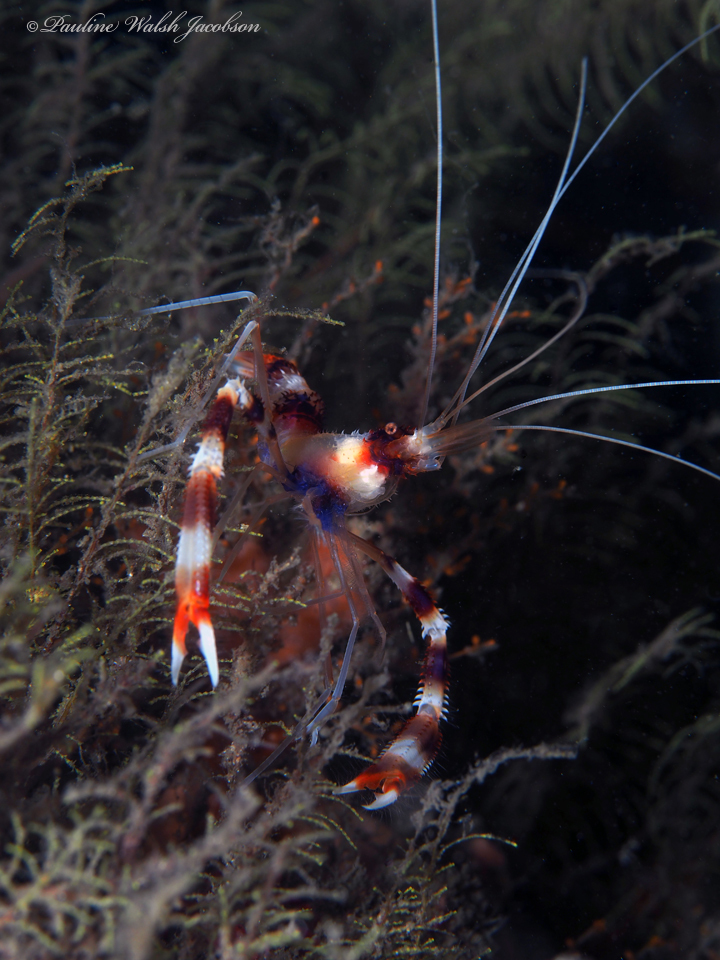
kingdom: Animalia
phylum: Arthropoda
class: Malacostraca
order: Decapoda
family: Stenopodidae
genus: Stenopus
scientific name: Stenopus hispidus
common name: Banded coral shrimp
